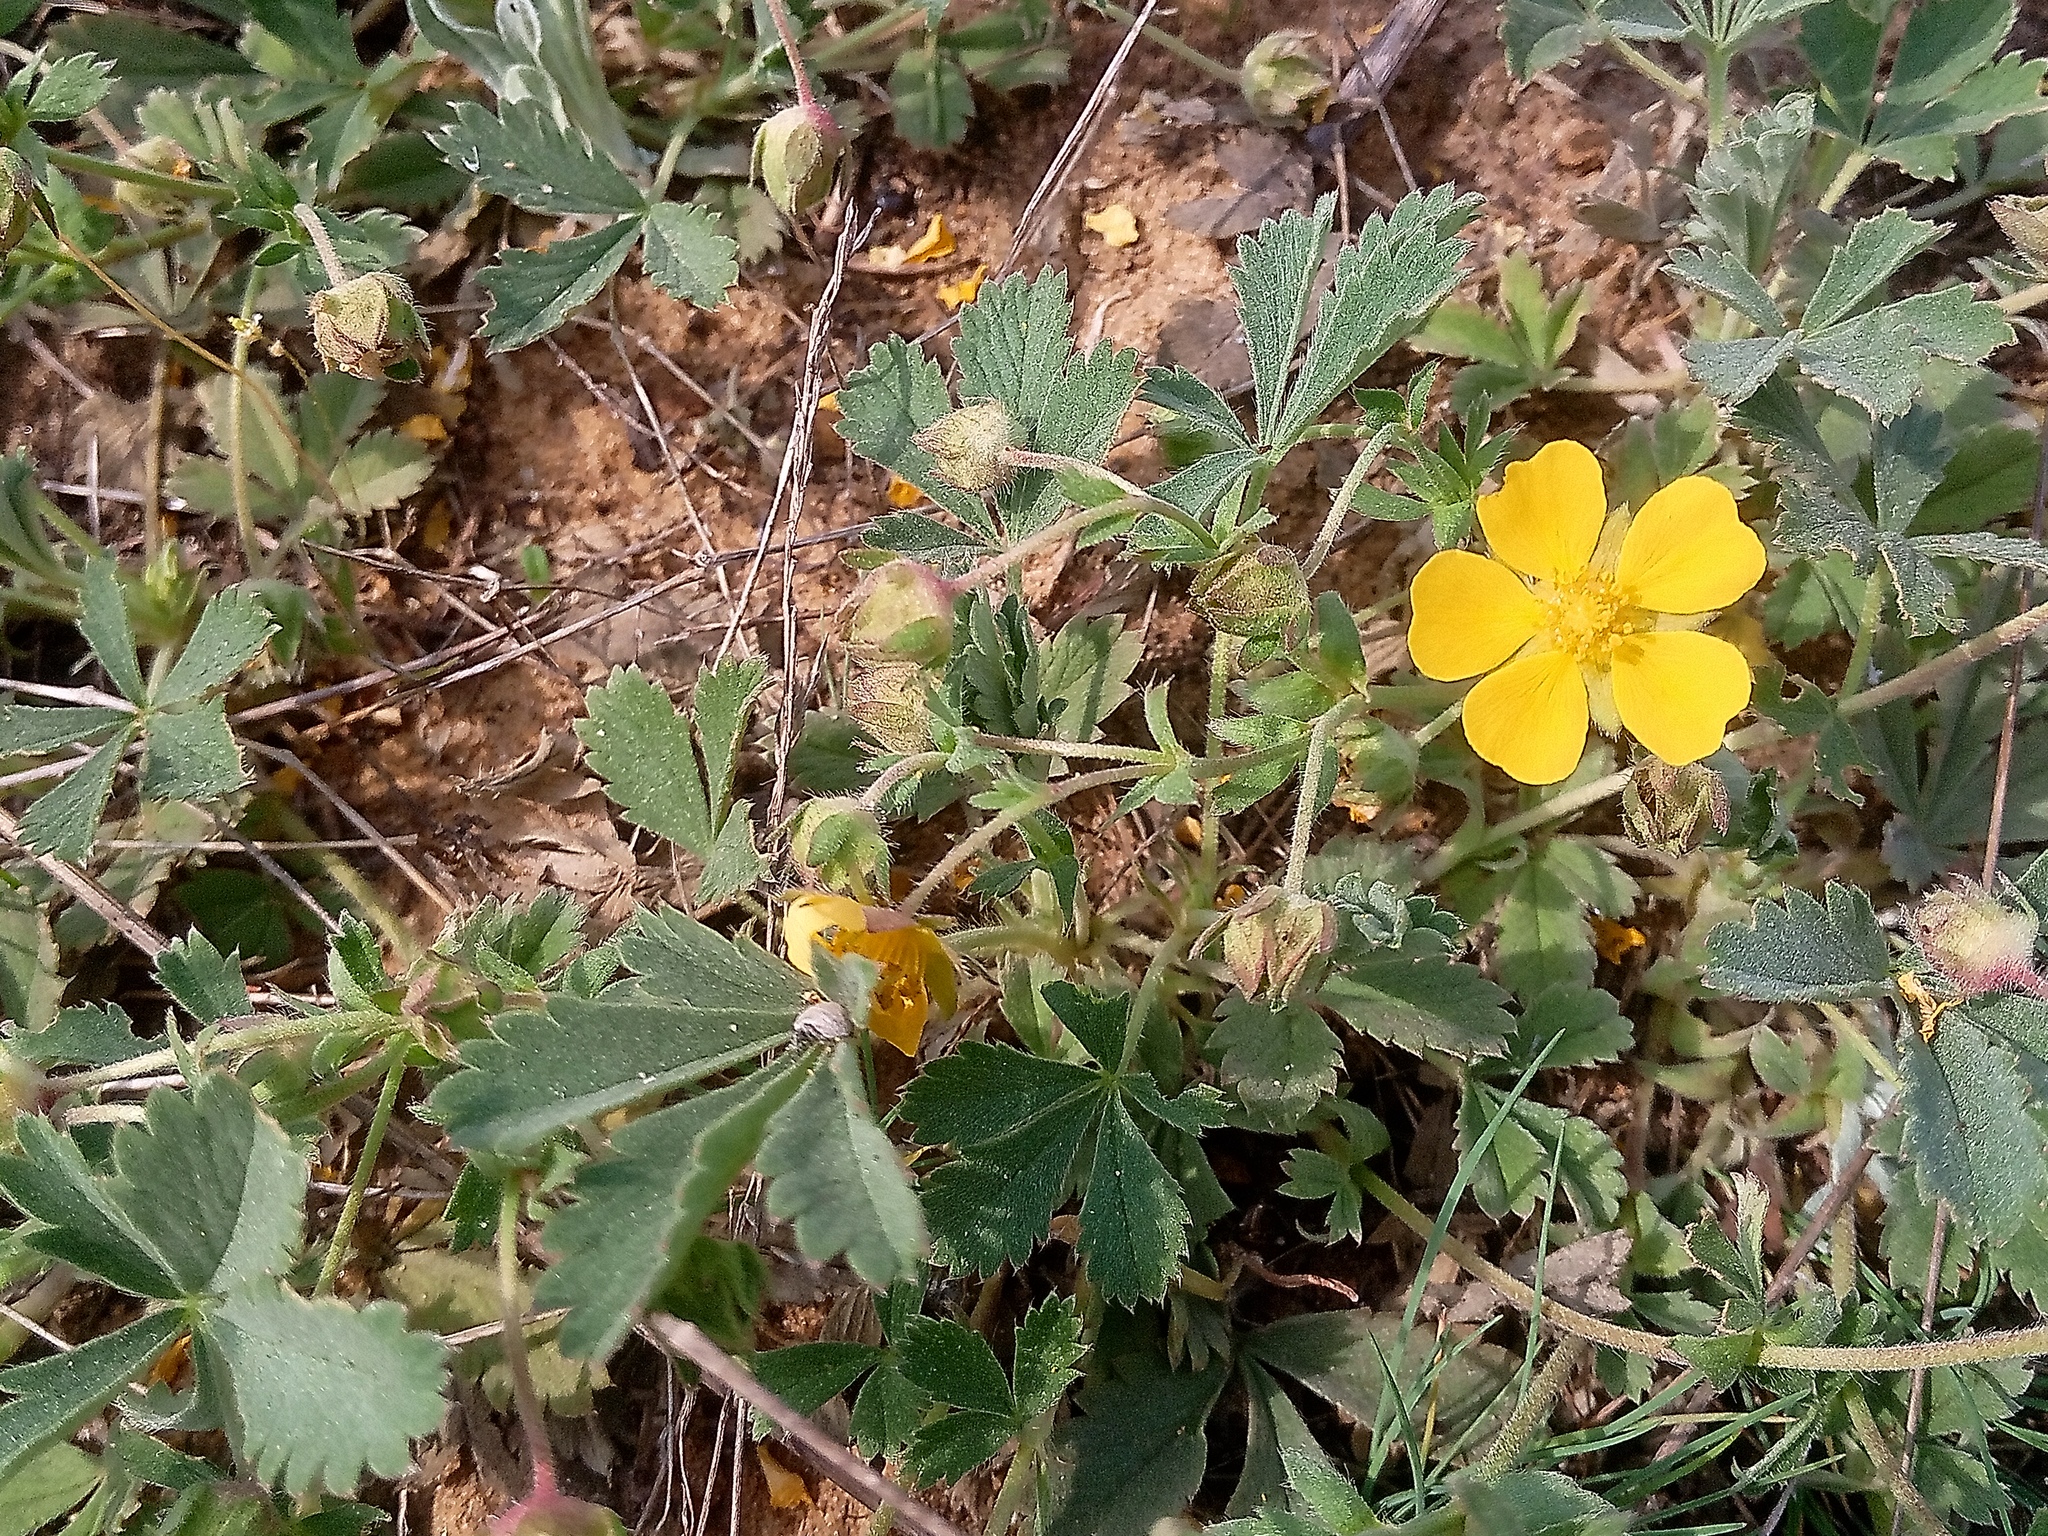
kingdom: Plantae
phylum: Tracheophyta
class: Magnoliopsida
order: Rosales
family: Rosaceae
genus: Potentilla
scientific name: Potentilla incana
